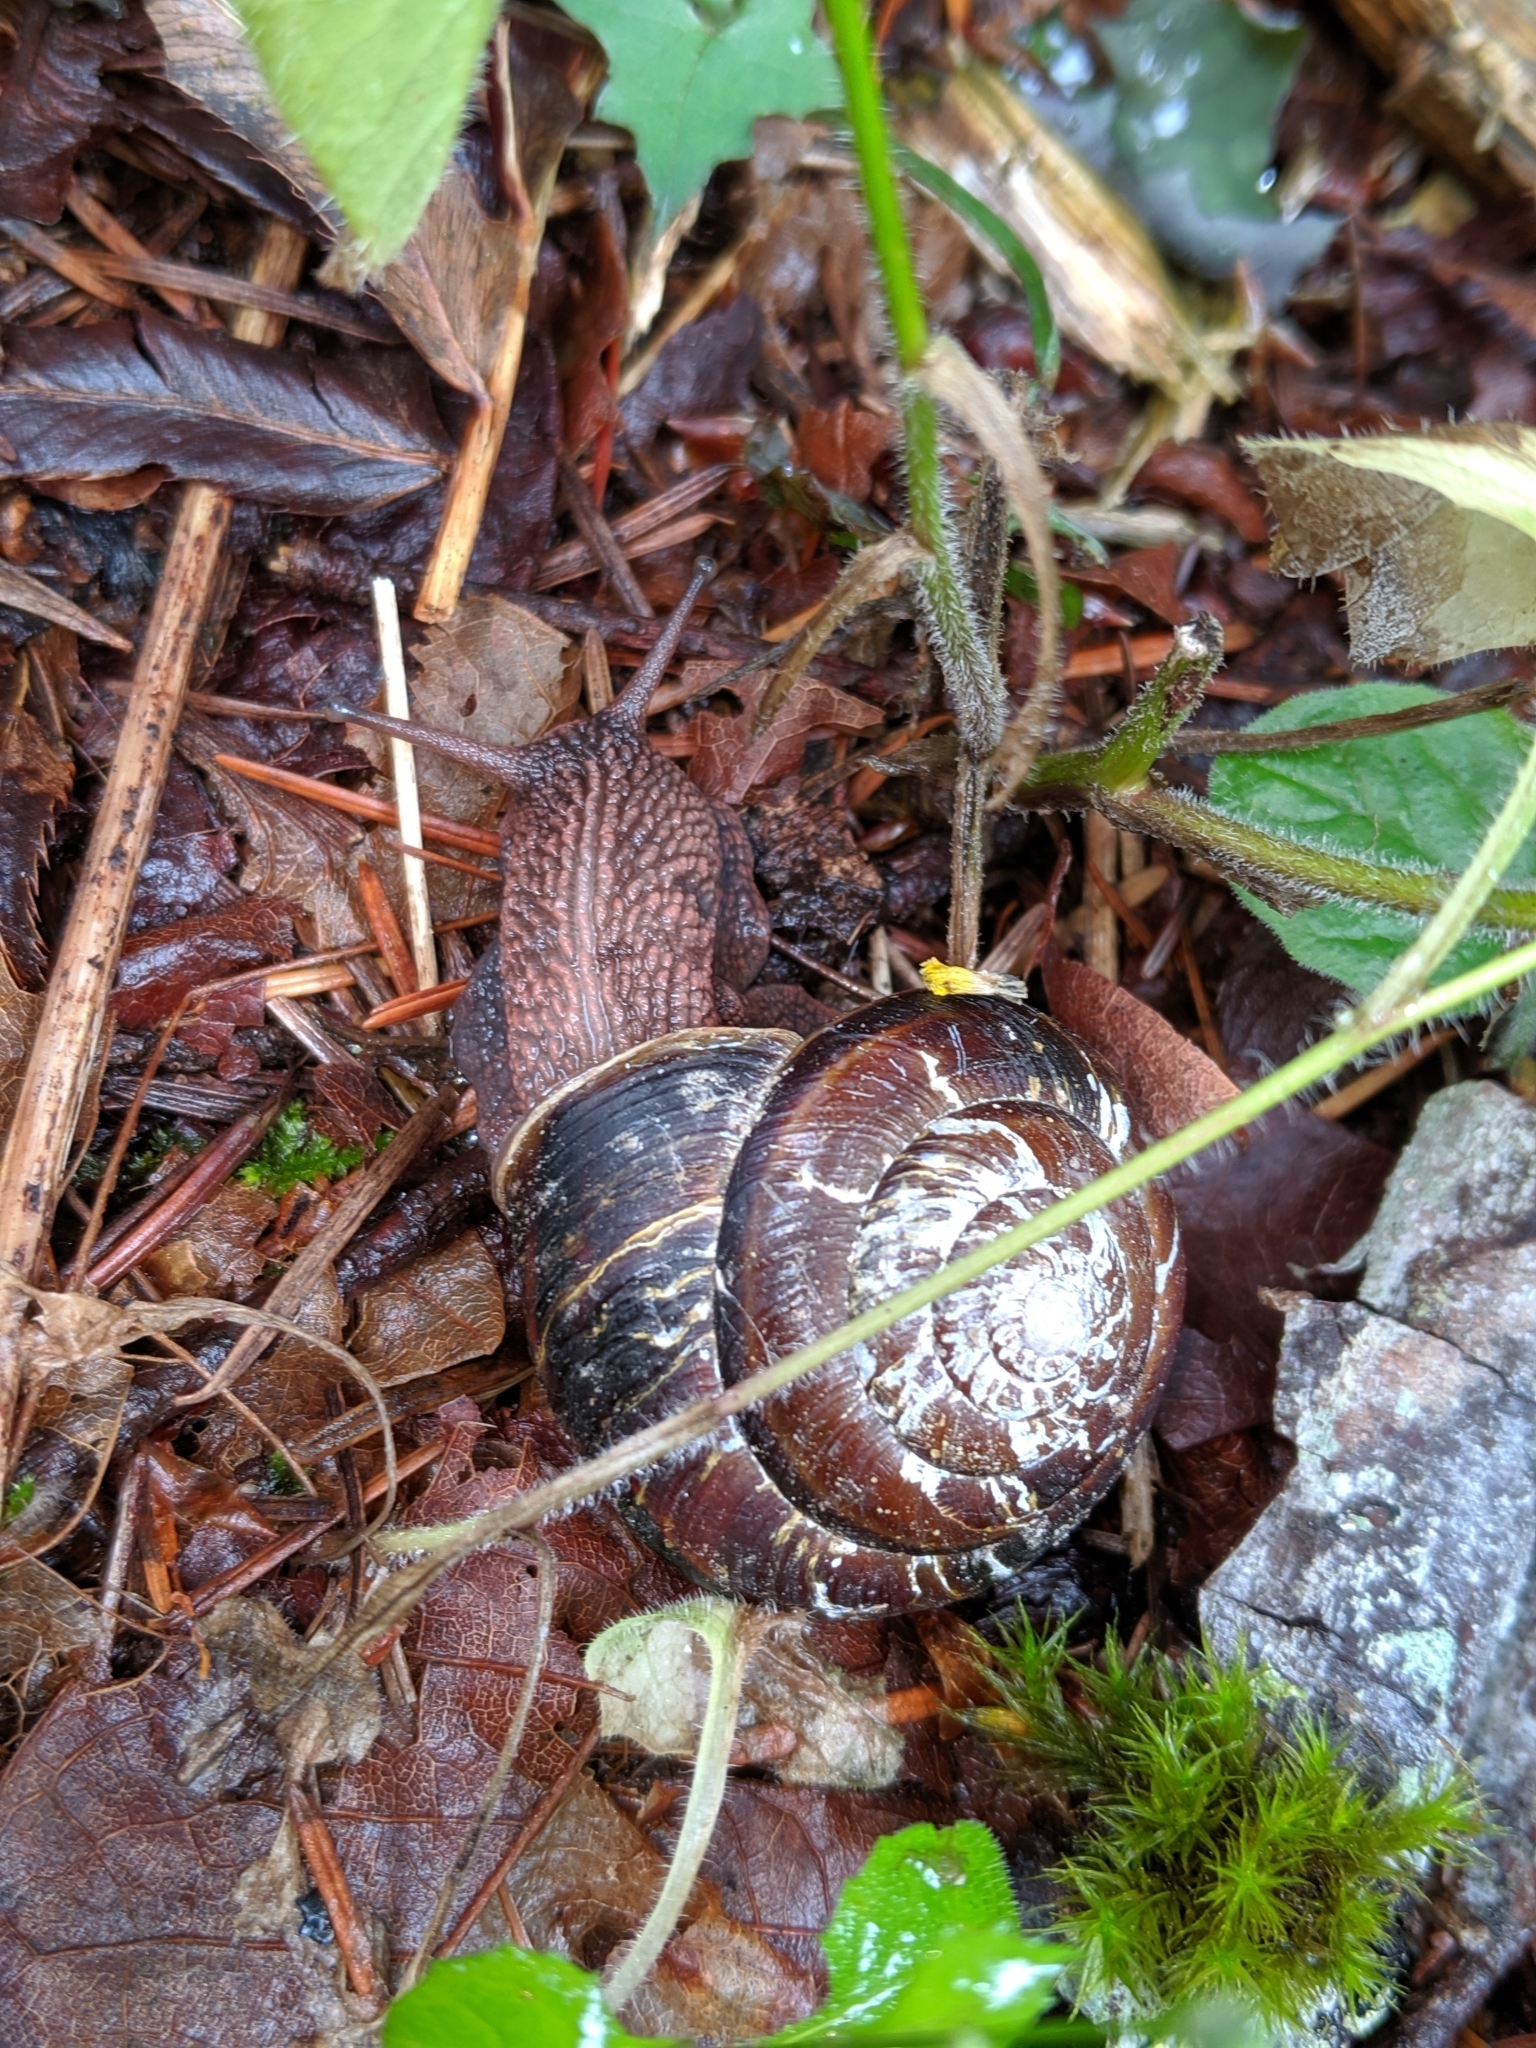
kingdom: Animalia
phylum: Mollusca
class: Gastropoda
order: Stylommatophora
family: Xanthonychidae
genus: Monadenia
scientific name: Monadenia fidelis
